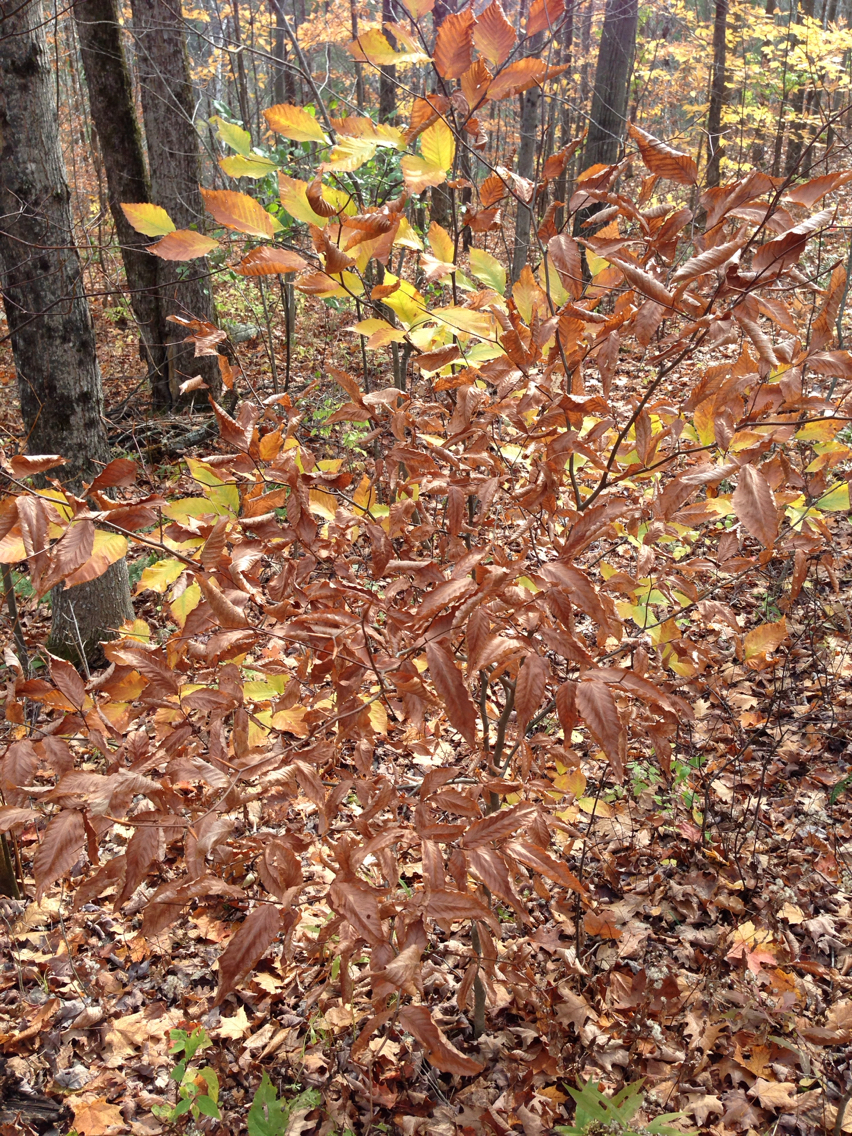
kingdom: Plantae
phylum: Tracheophyta
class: Magnoliopsida
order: Fagales
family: Fagaceae
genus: Fagus
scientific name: Fagus grandifolia
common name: American beech
